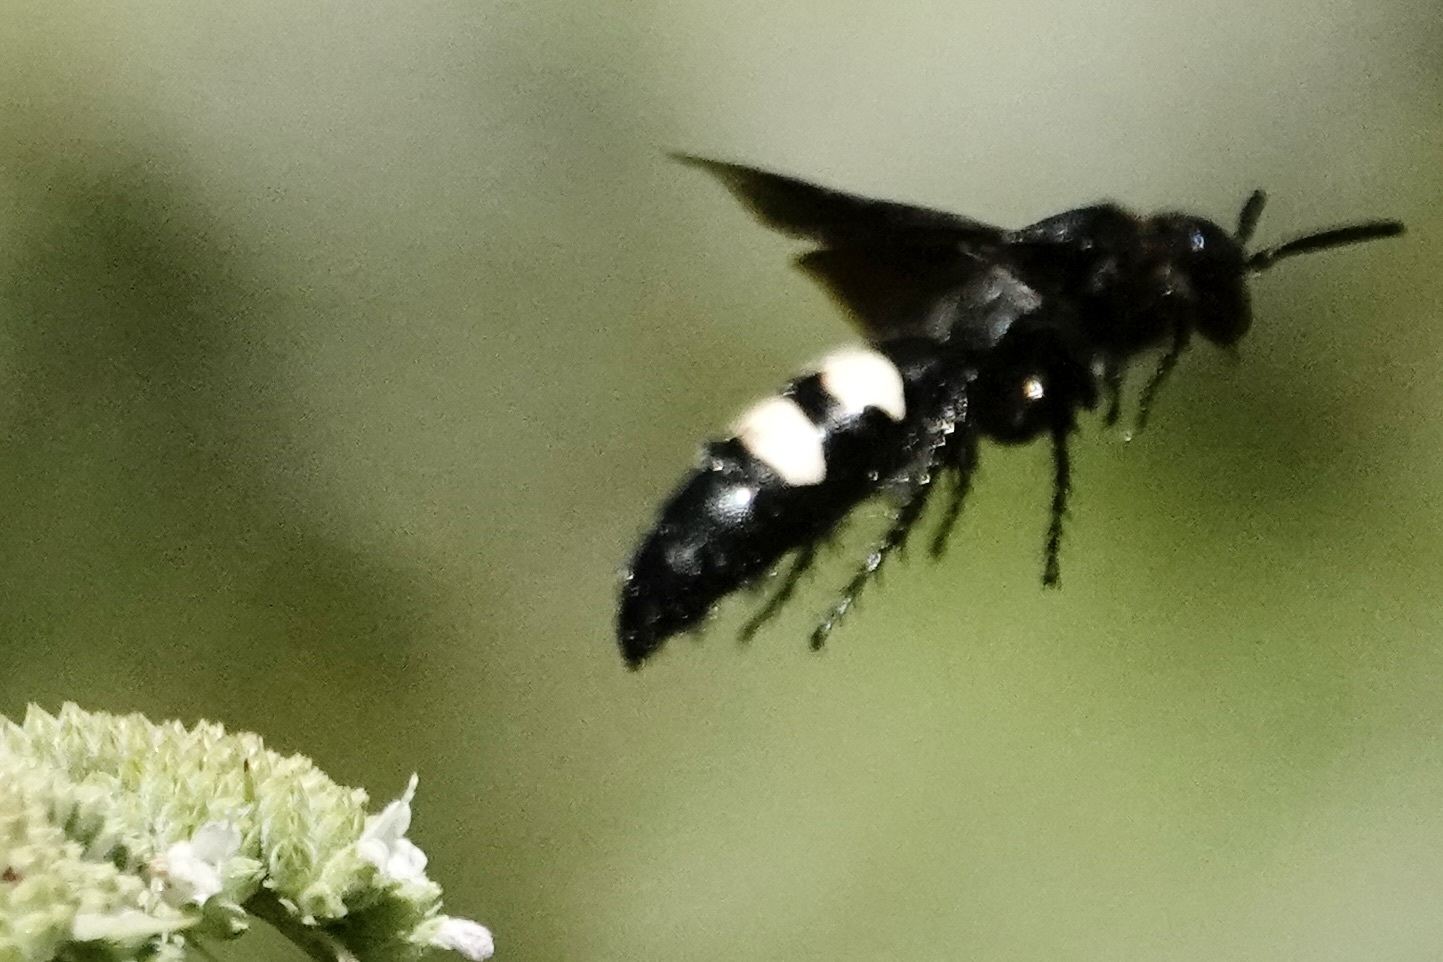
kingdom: Animalia
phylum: Arthropoda
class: Insecta
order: Hymenoptera
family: Scoliidae
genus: Scolia
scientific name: Scolia bicincta
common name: Double-banded scoliid wasp
